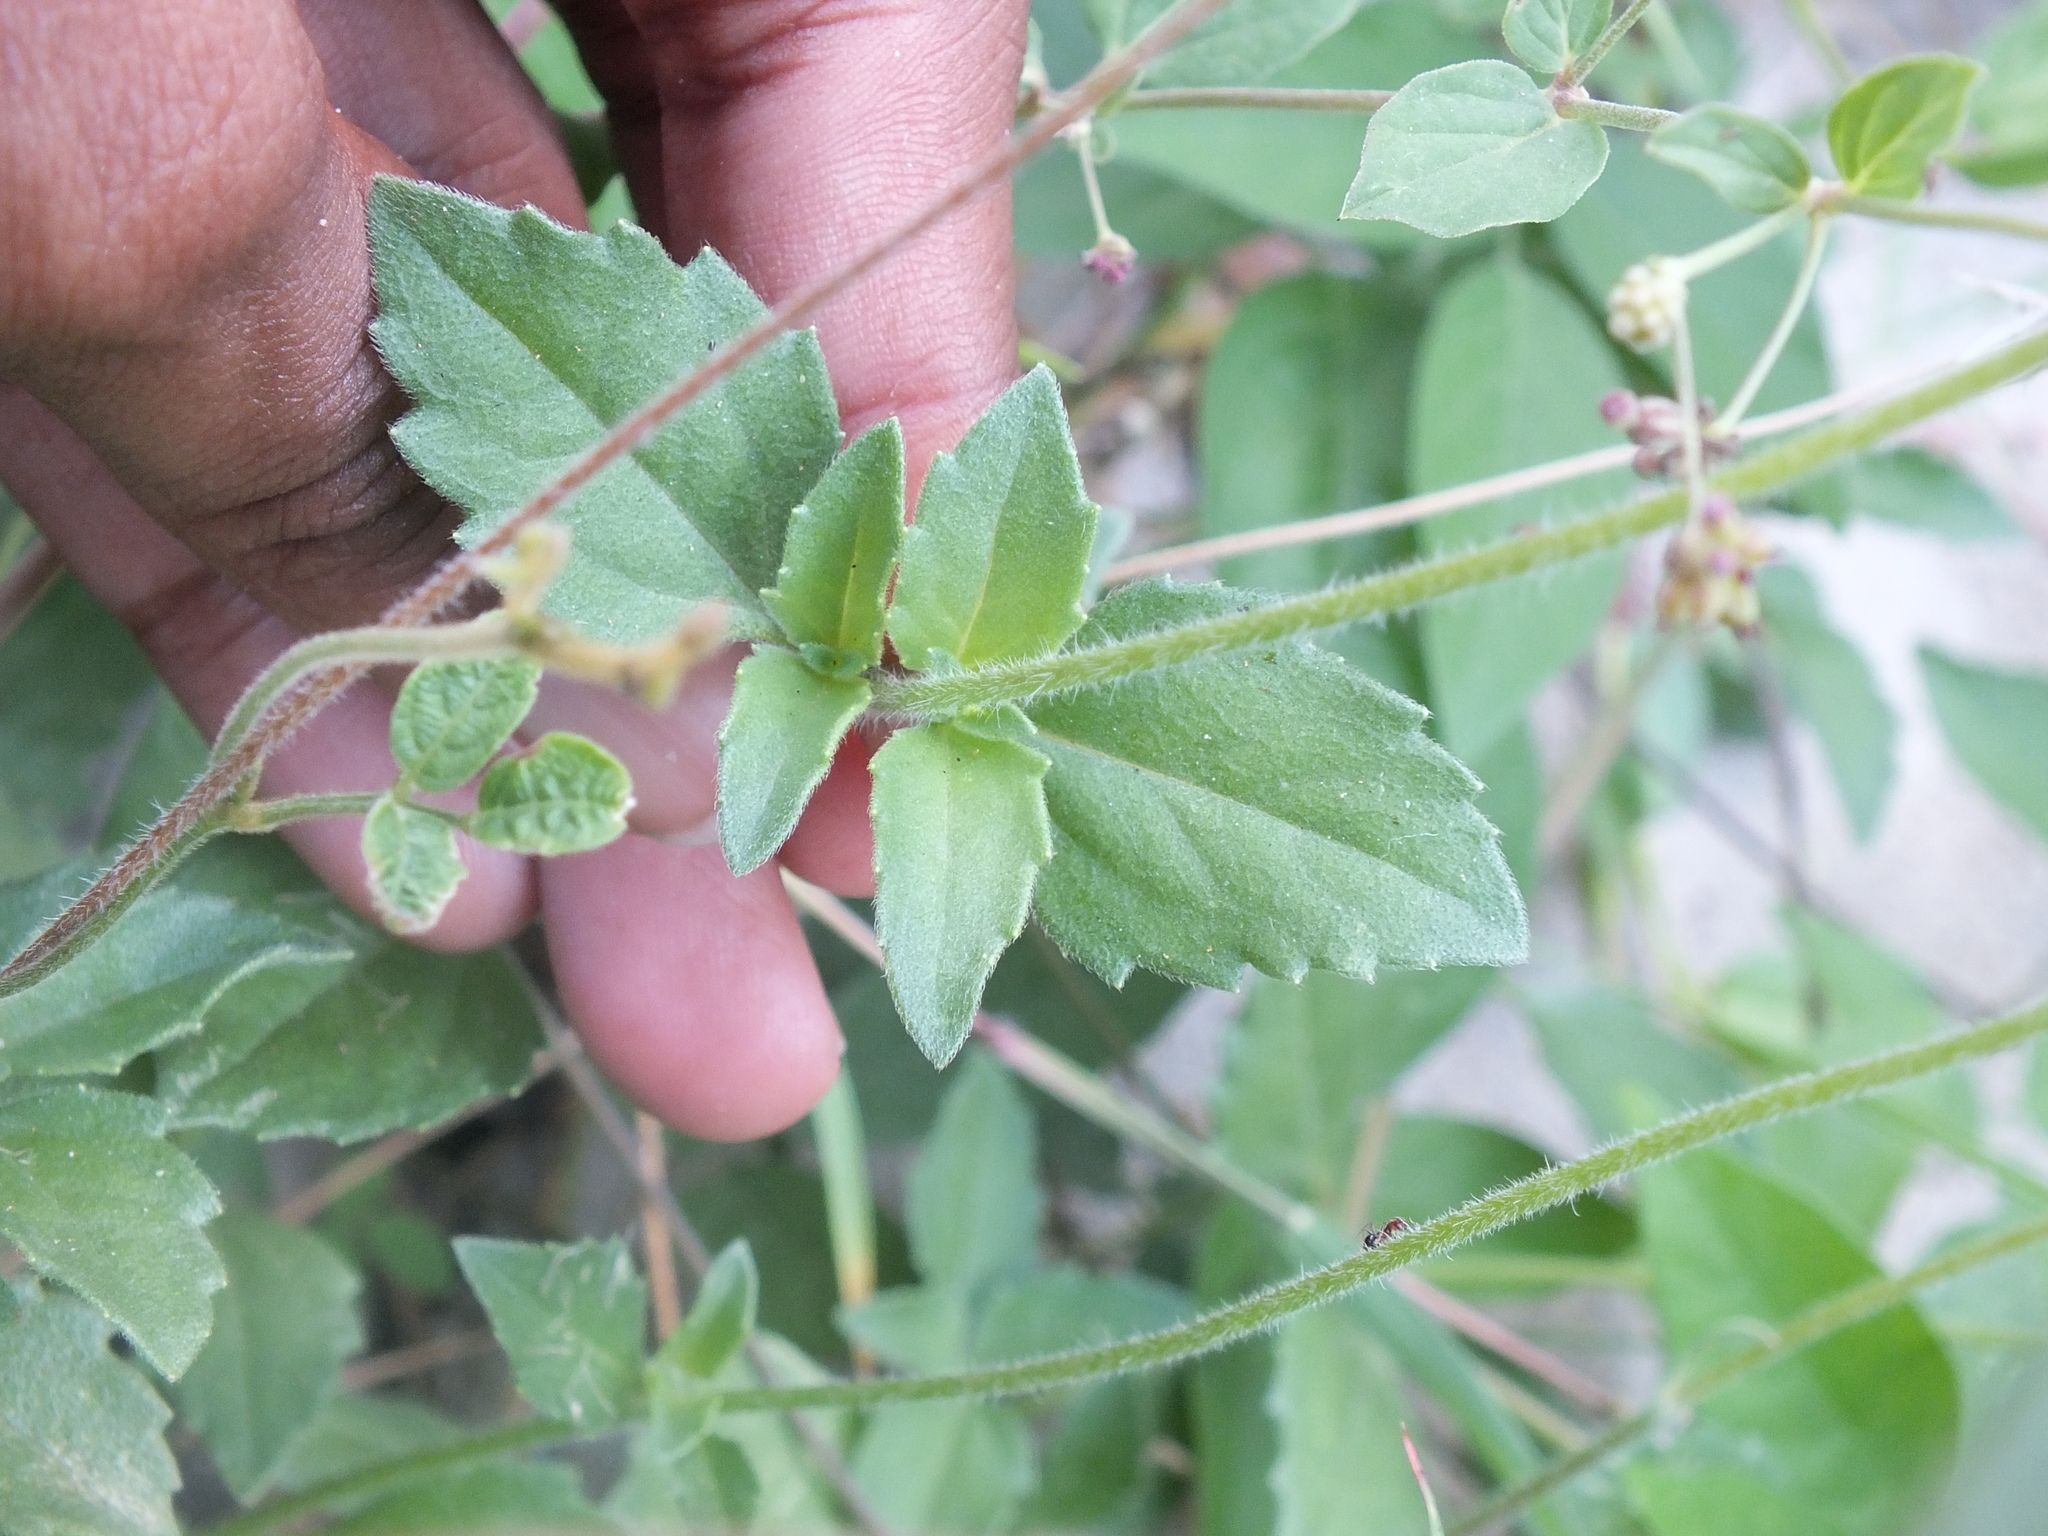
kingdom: Plantae
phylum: Tracheophyta
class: Magnoliopsida
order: Asterales
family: Asteraceae
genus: Tridax
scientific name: Tridax procumbens
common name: Coatbuttons
